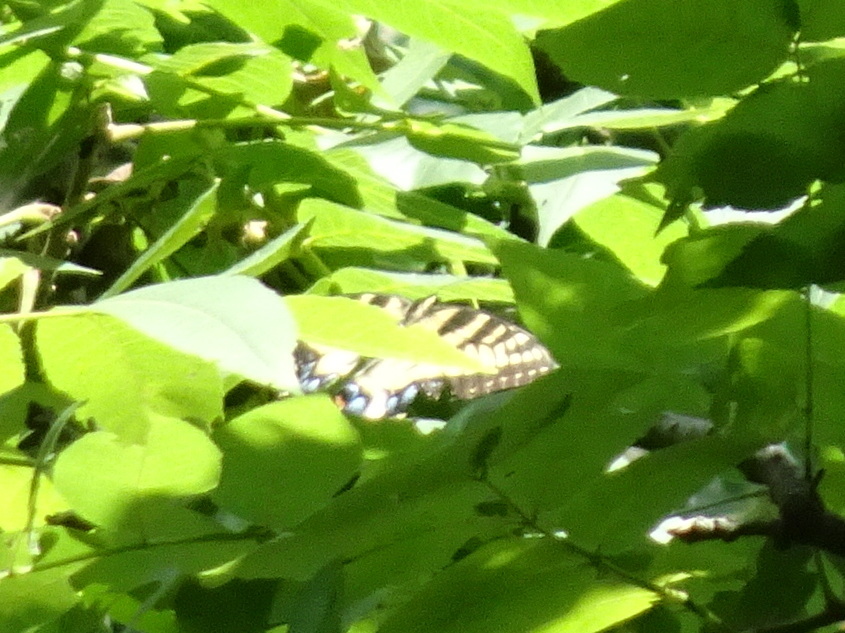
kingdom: Animalia
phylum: Arthropoda
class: Insecta
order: Lepidoptera
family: Papilionidae
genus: Papilio
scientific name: Papilio glaucus
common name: Tiger swallowtail
